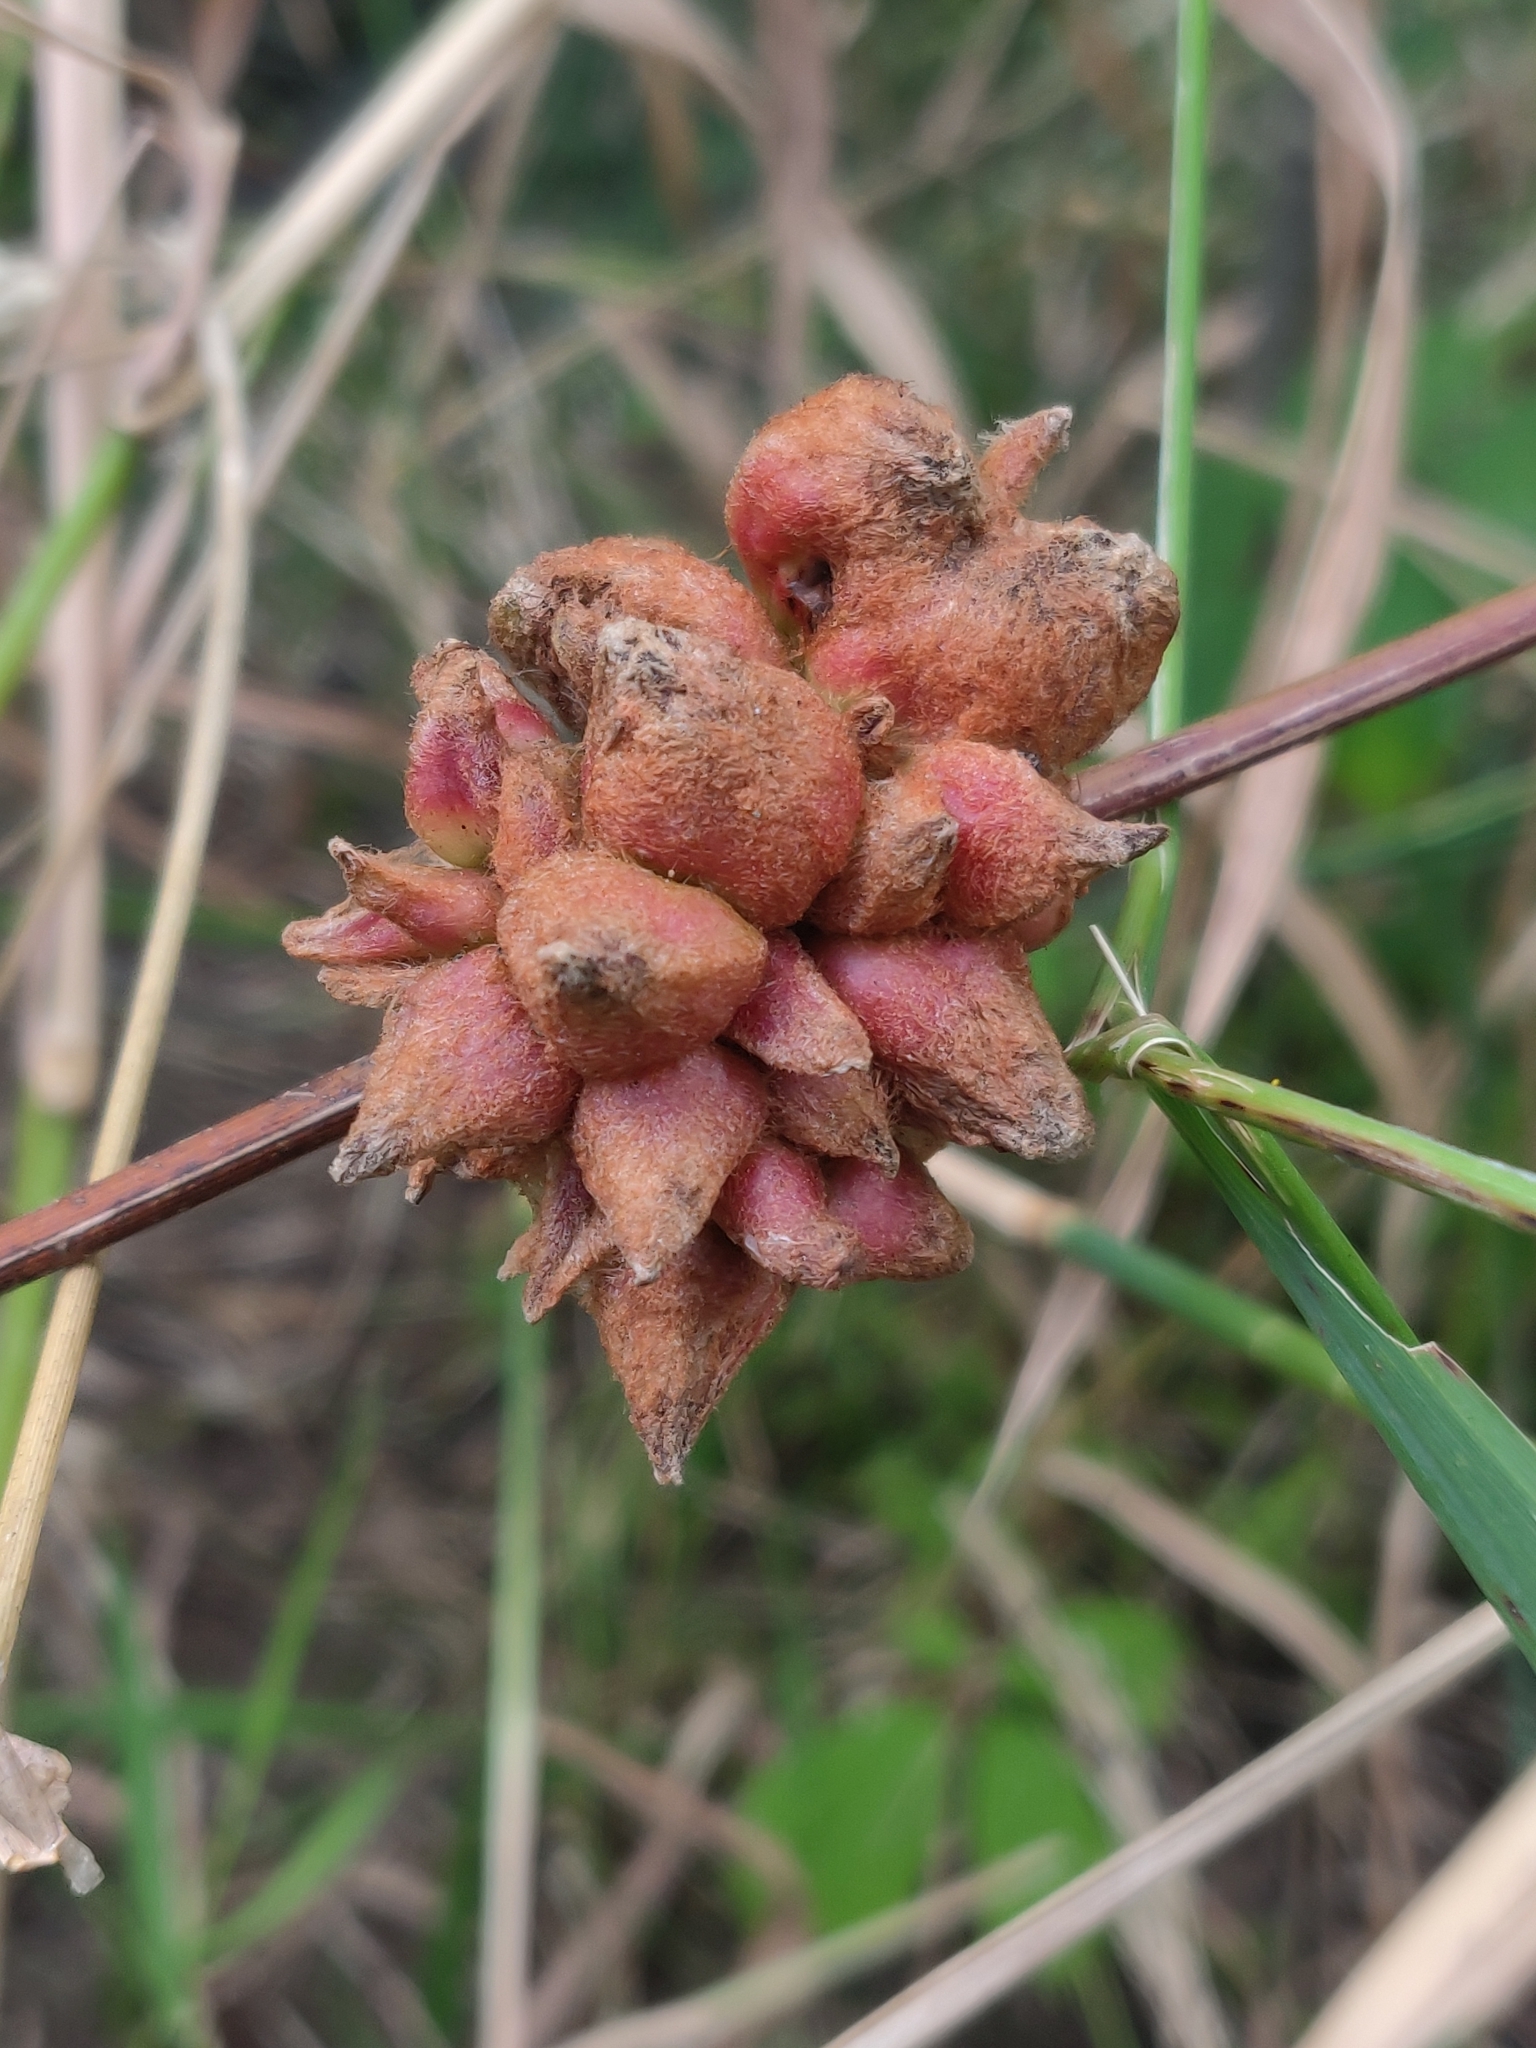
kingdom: Animalia
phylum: Arthropoda
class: Insecta
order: Diptera
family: Cecidomyiidae
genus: Ampelomyia
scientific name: Ampelomyia vitiscoryloides
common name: Grape filbert gall
